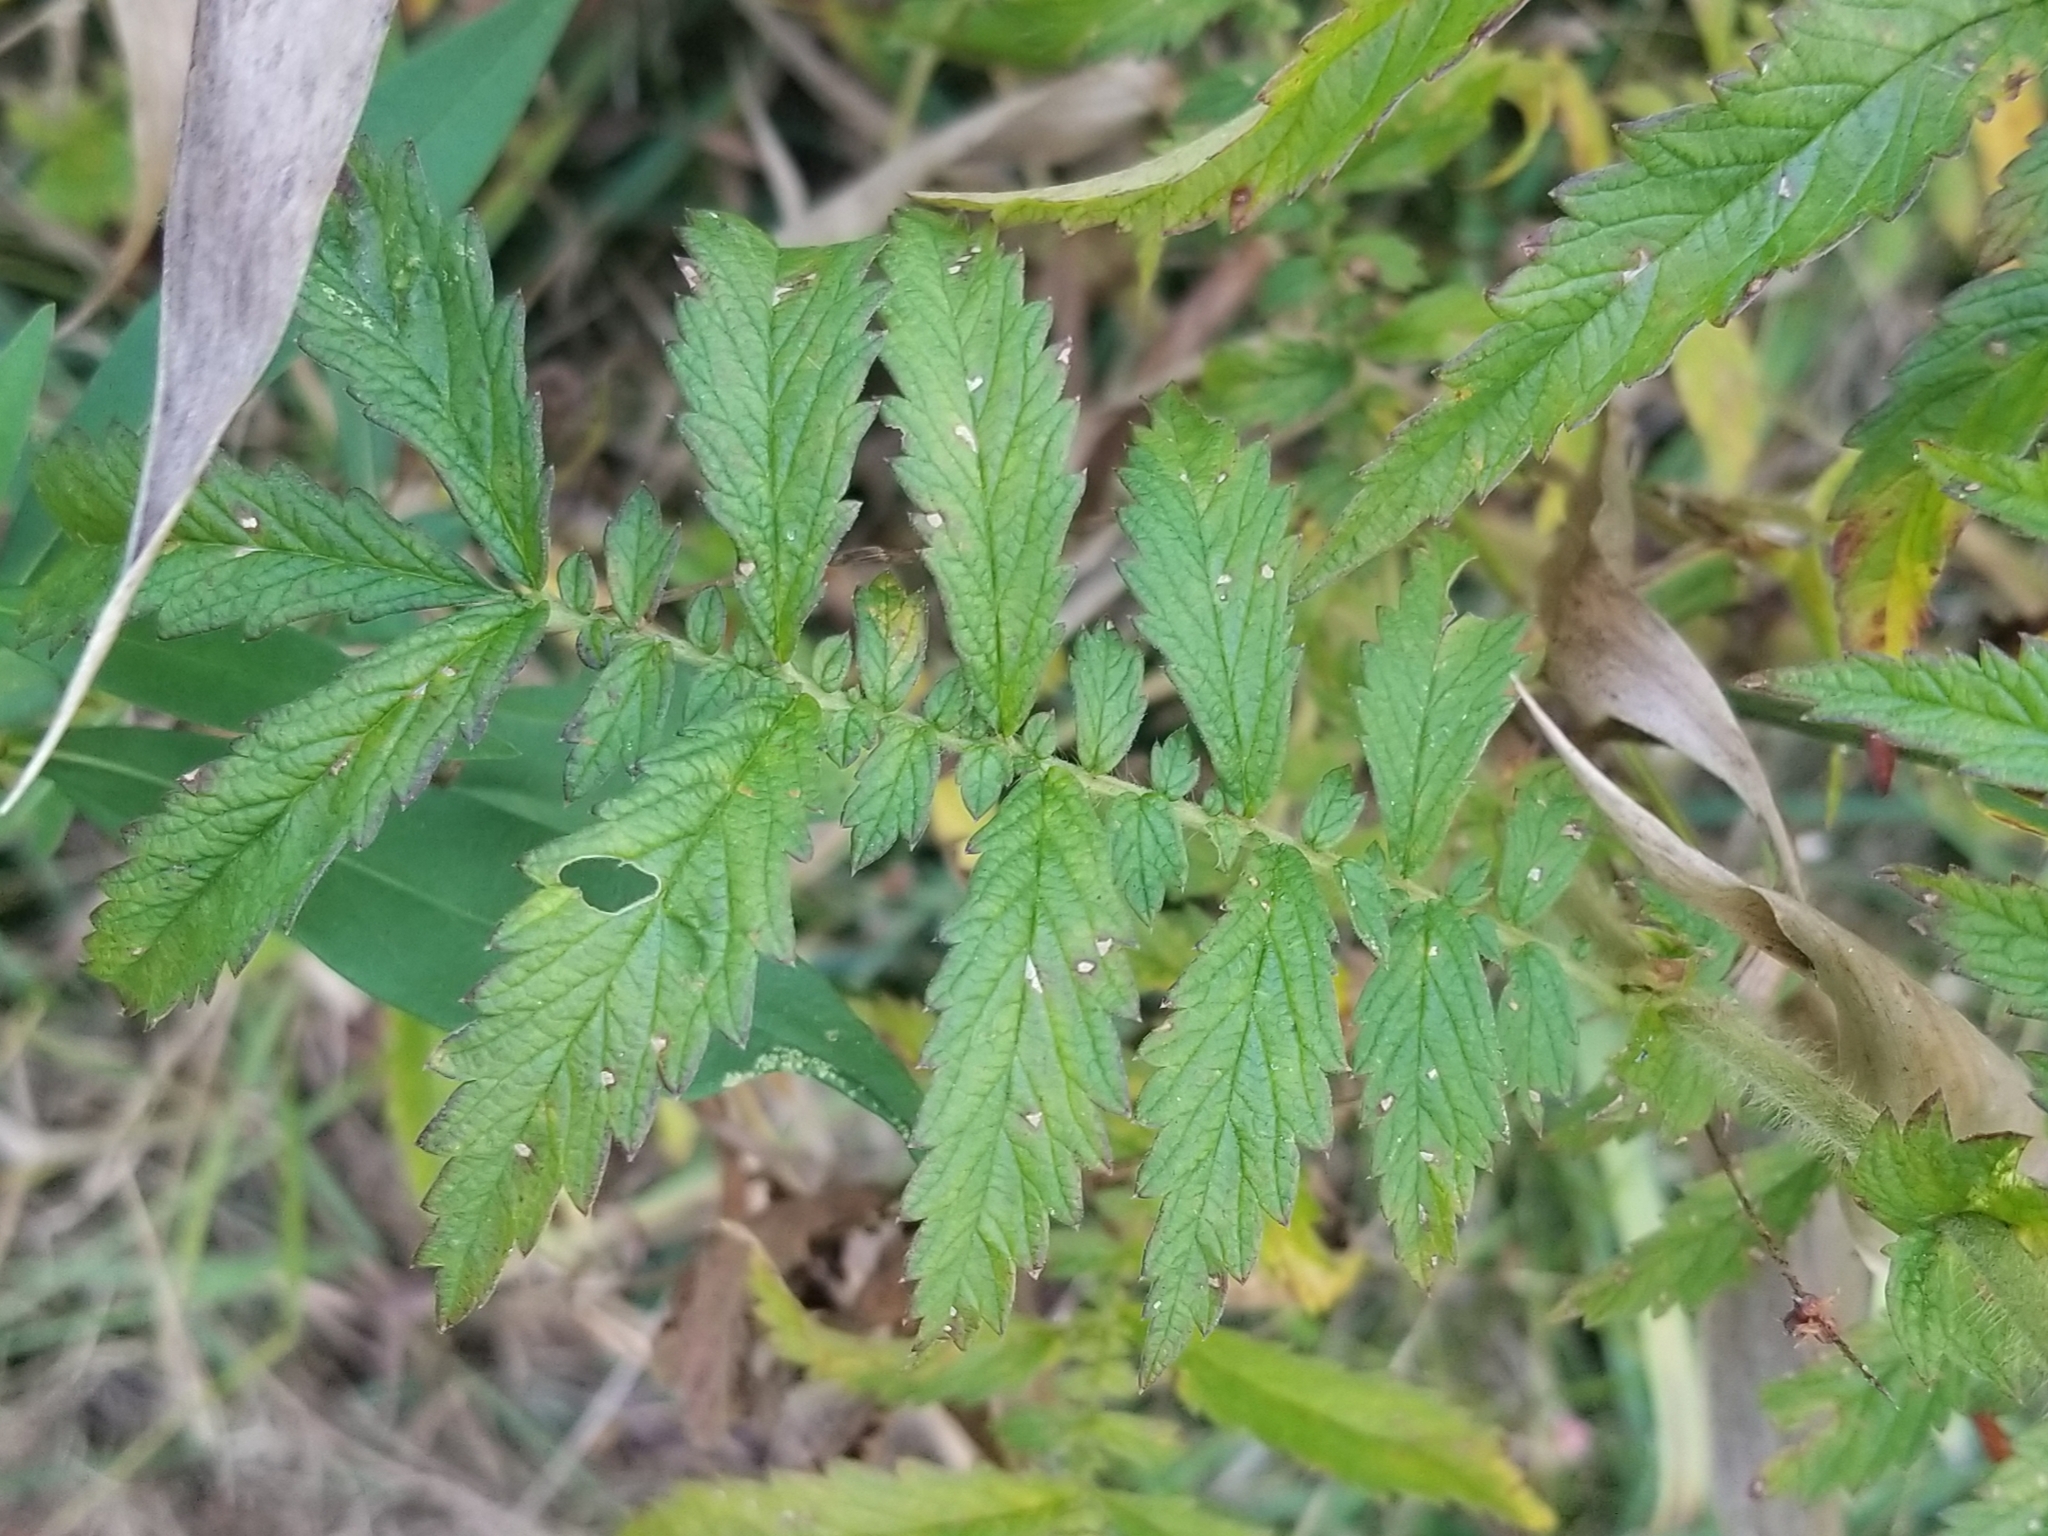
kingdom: Plantae
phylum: Tracheophyta
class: Magnoliopsida
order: Rosales
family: Rosaceae
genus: Agrimonia
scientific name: Agrimonia parviflora
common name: Harvest-lice
